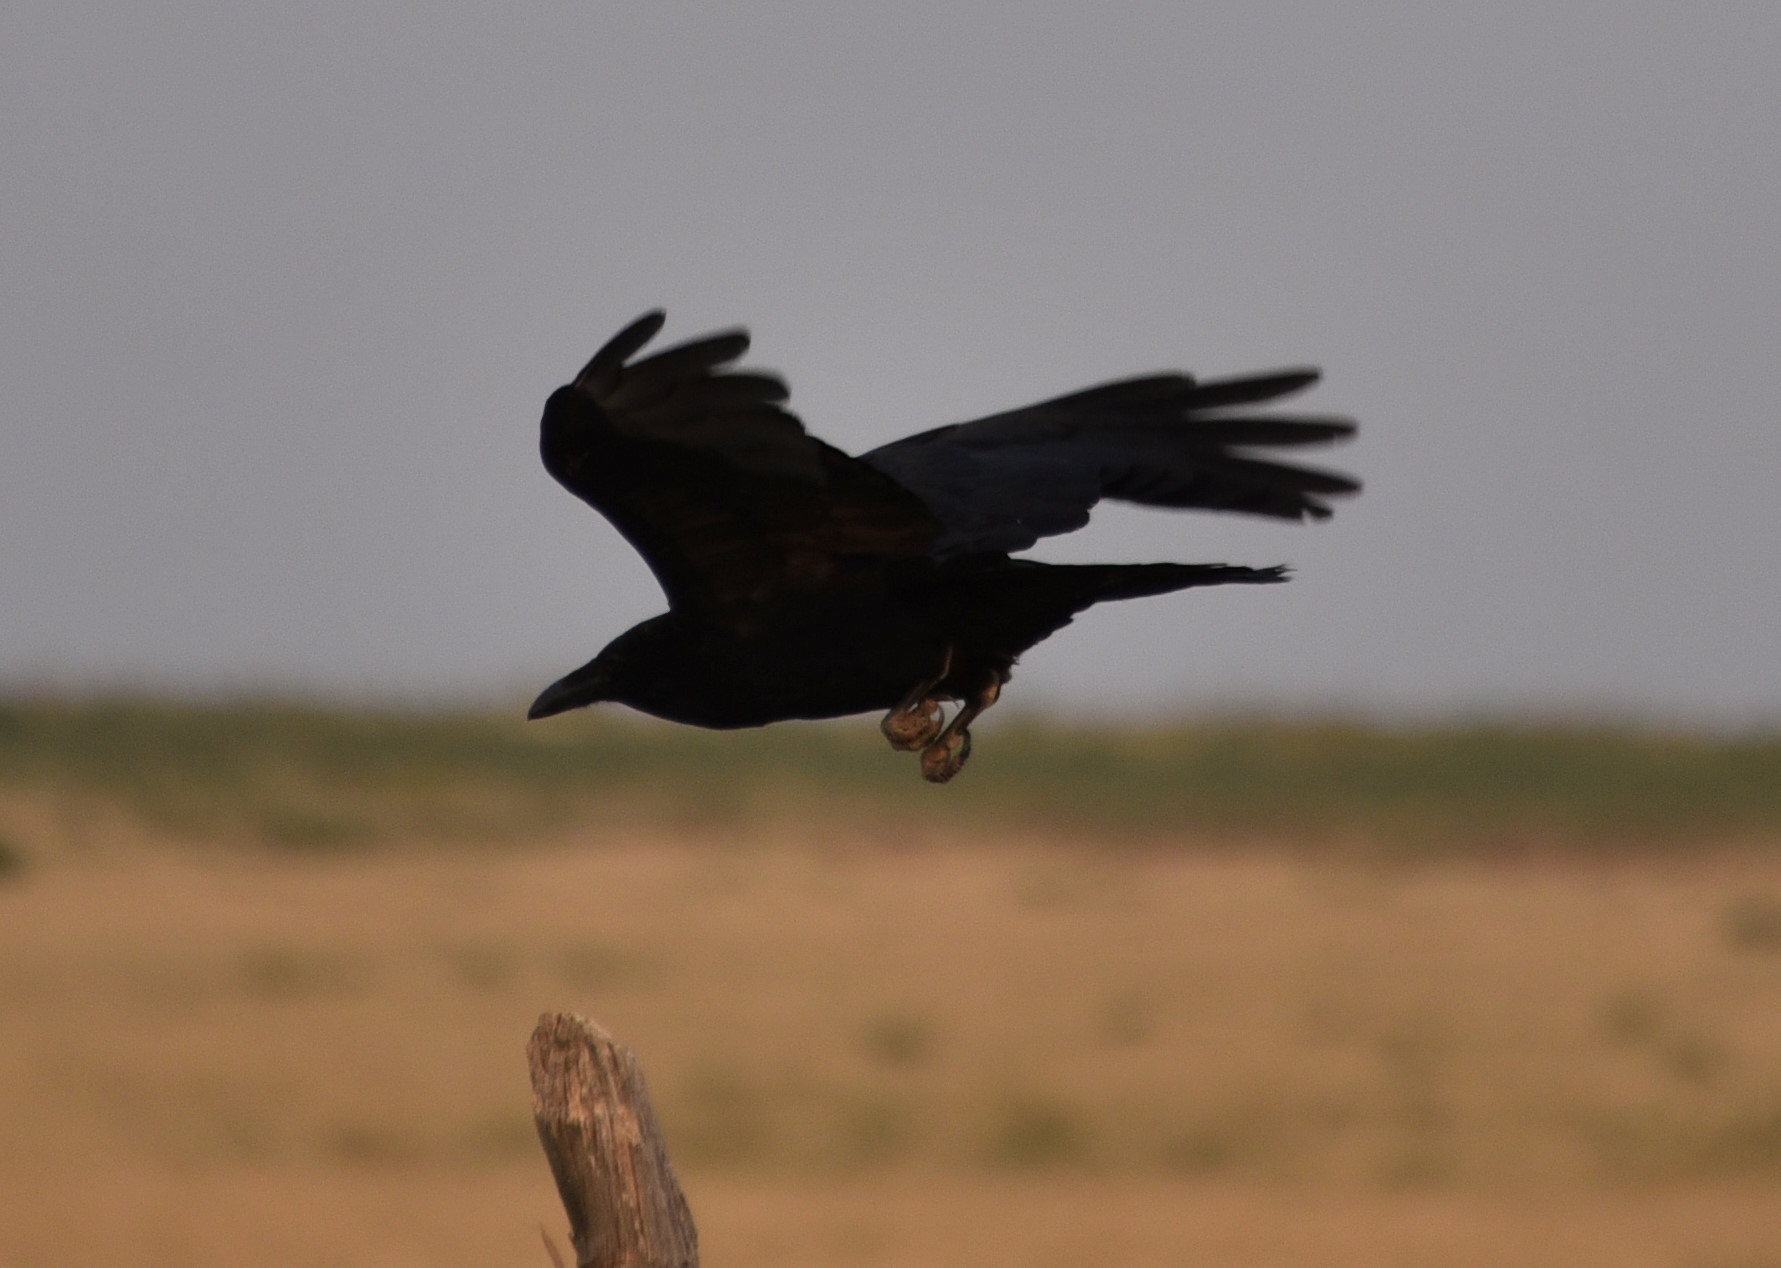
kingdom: Animalia
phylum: Chordata
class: Aves
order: Passeriformes
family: Corvidae
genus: Corvus
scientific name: Corvus corax
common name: Common raven
